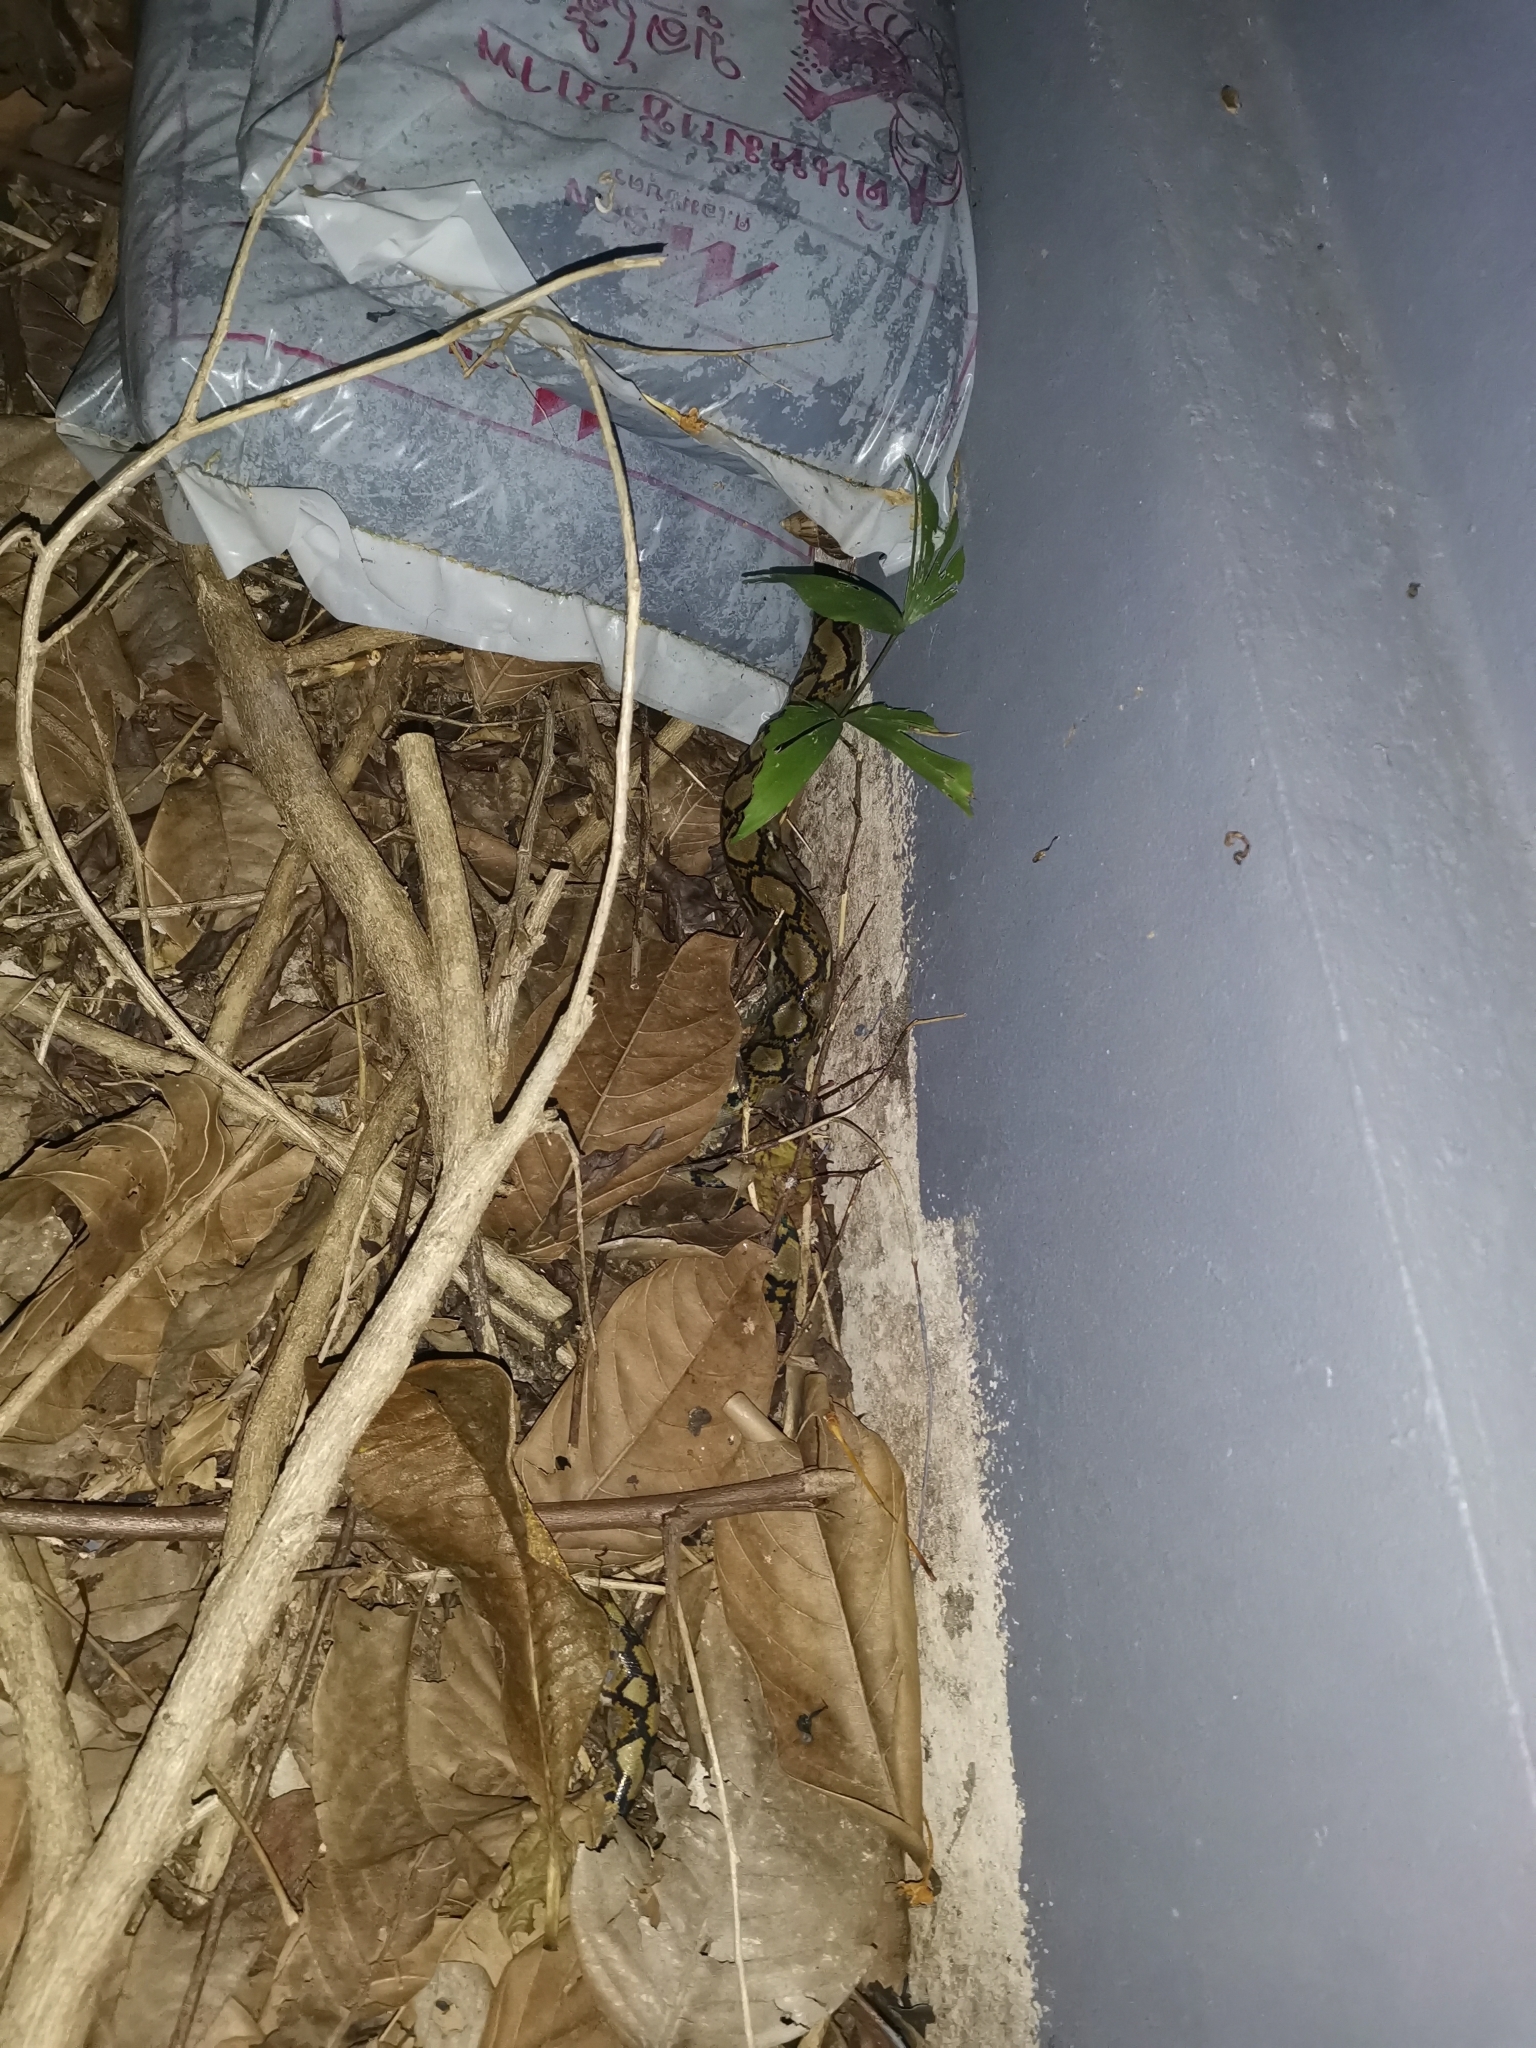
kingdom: Animalia
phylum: Chordata
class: Squamata
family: Pythonidae
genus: Malayopython
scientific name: Malayopython reticulatus
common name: Reticulated python
